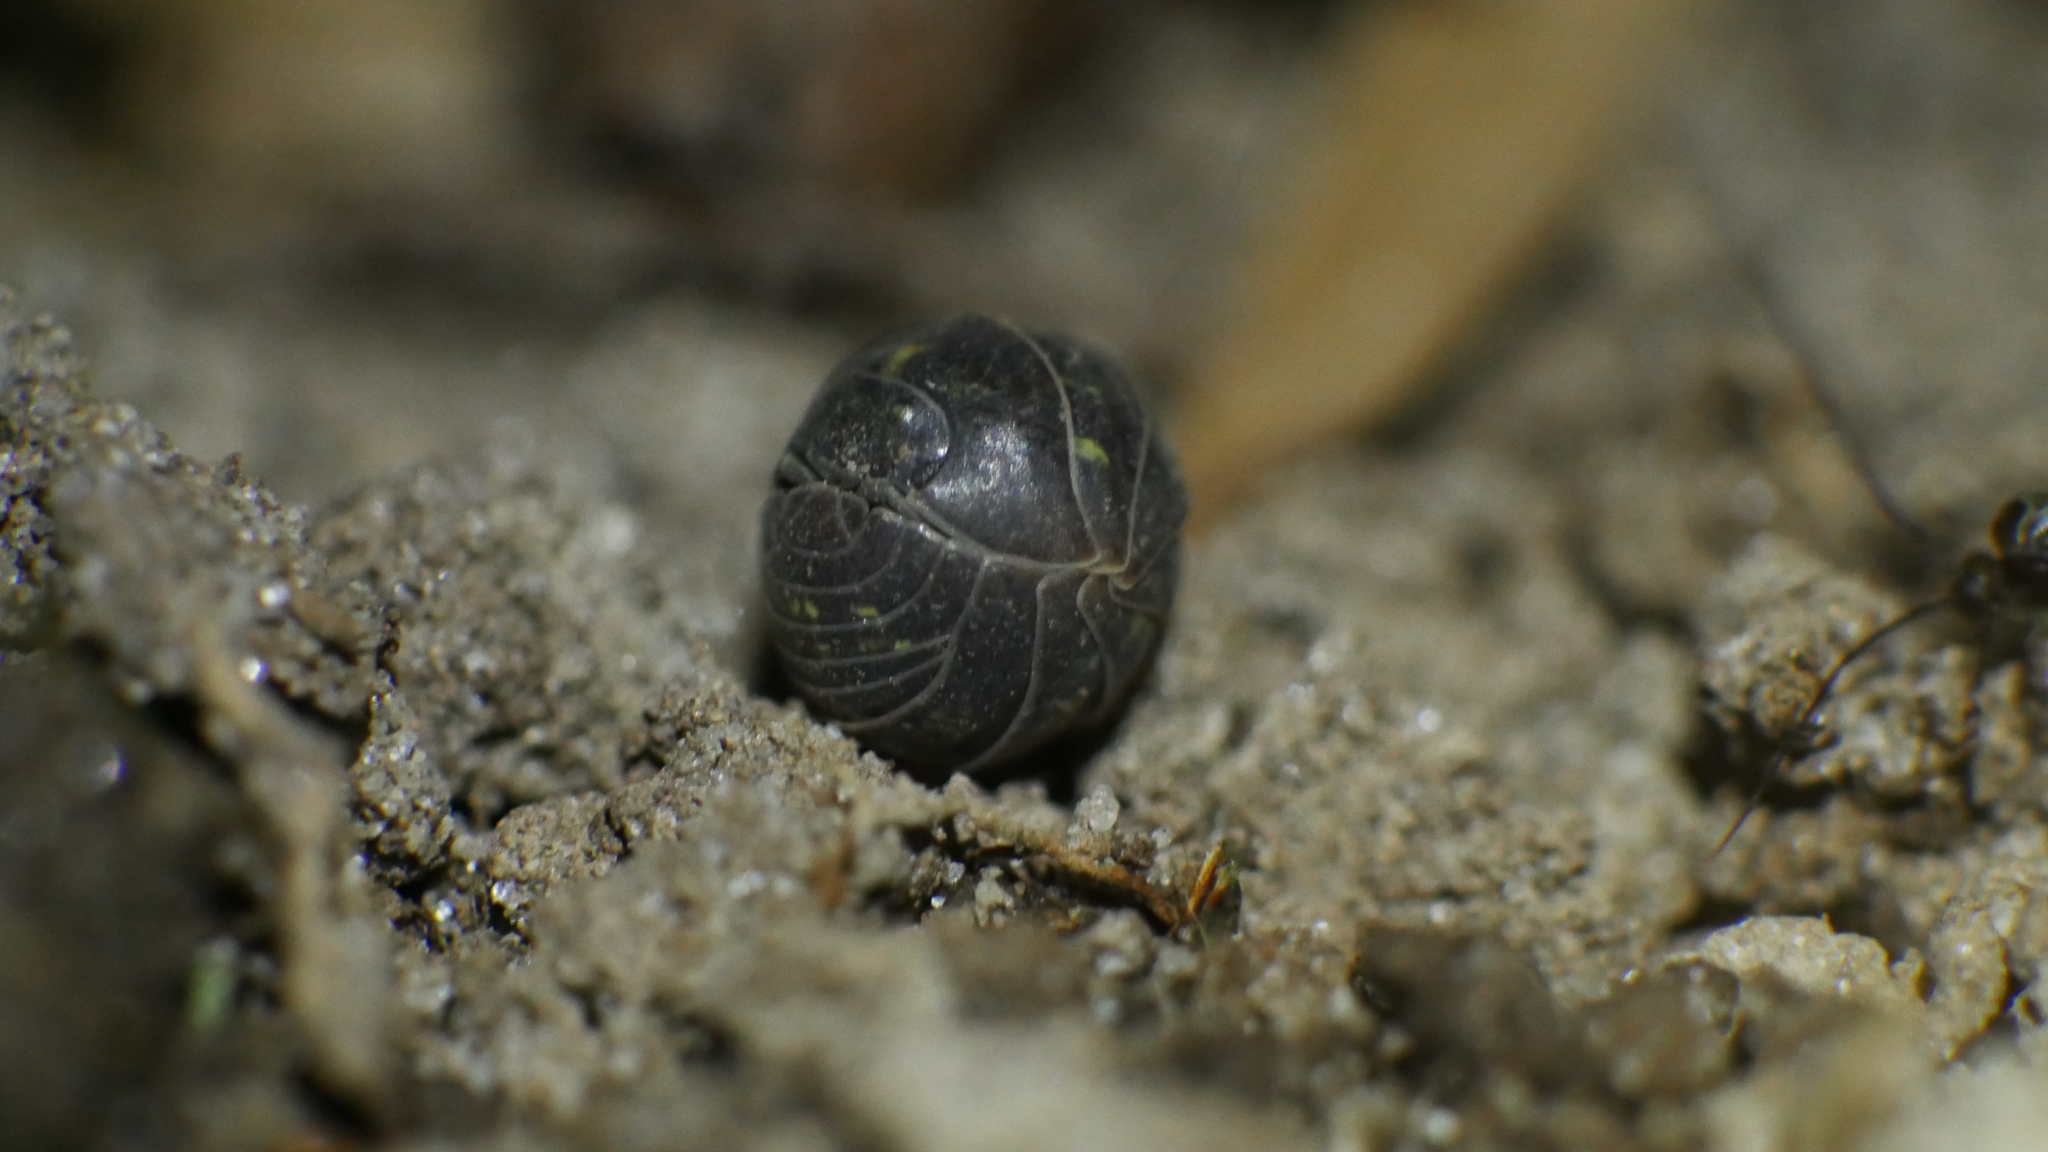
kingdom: Animalia
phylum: Arthropoda
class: Malacostraca
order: Isopoda
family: Armadillidiidae
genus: Armadillidium
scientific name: Armadillidium vulgare
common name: Common pill woodlouse
